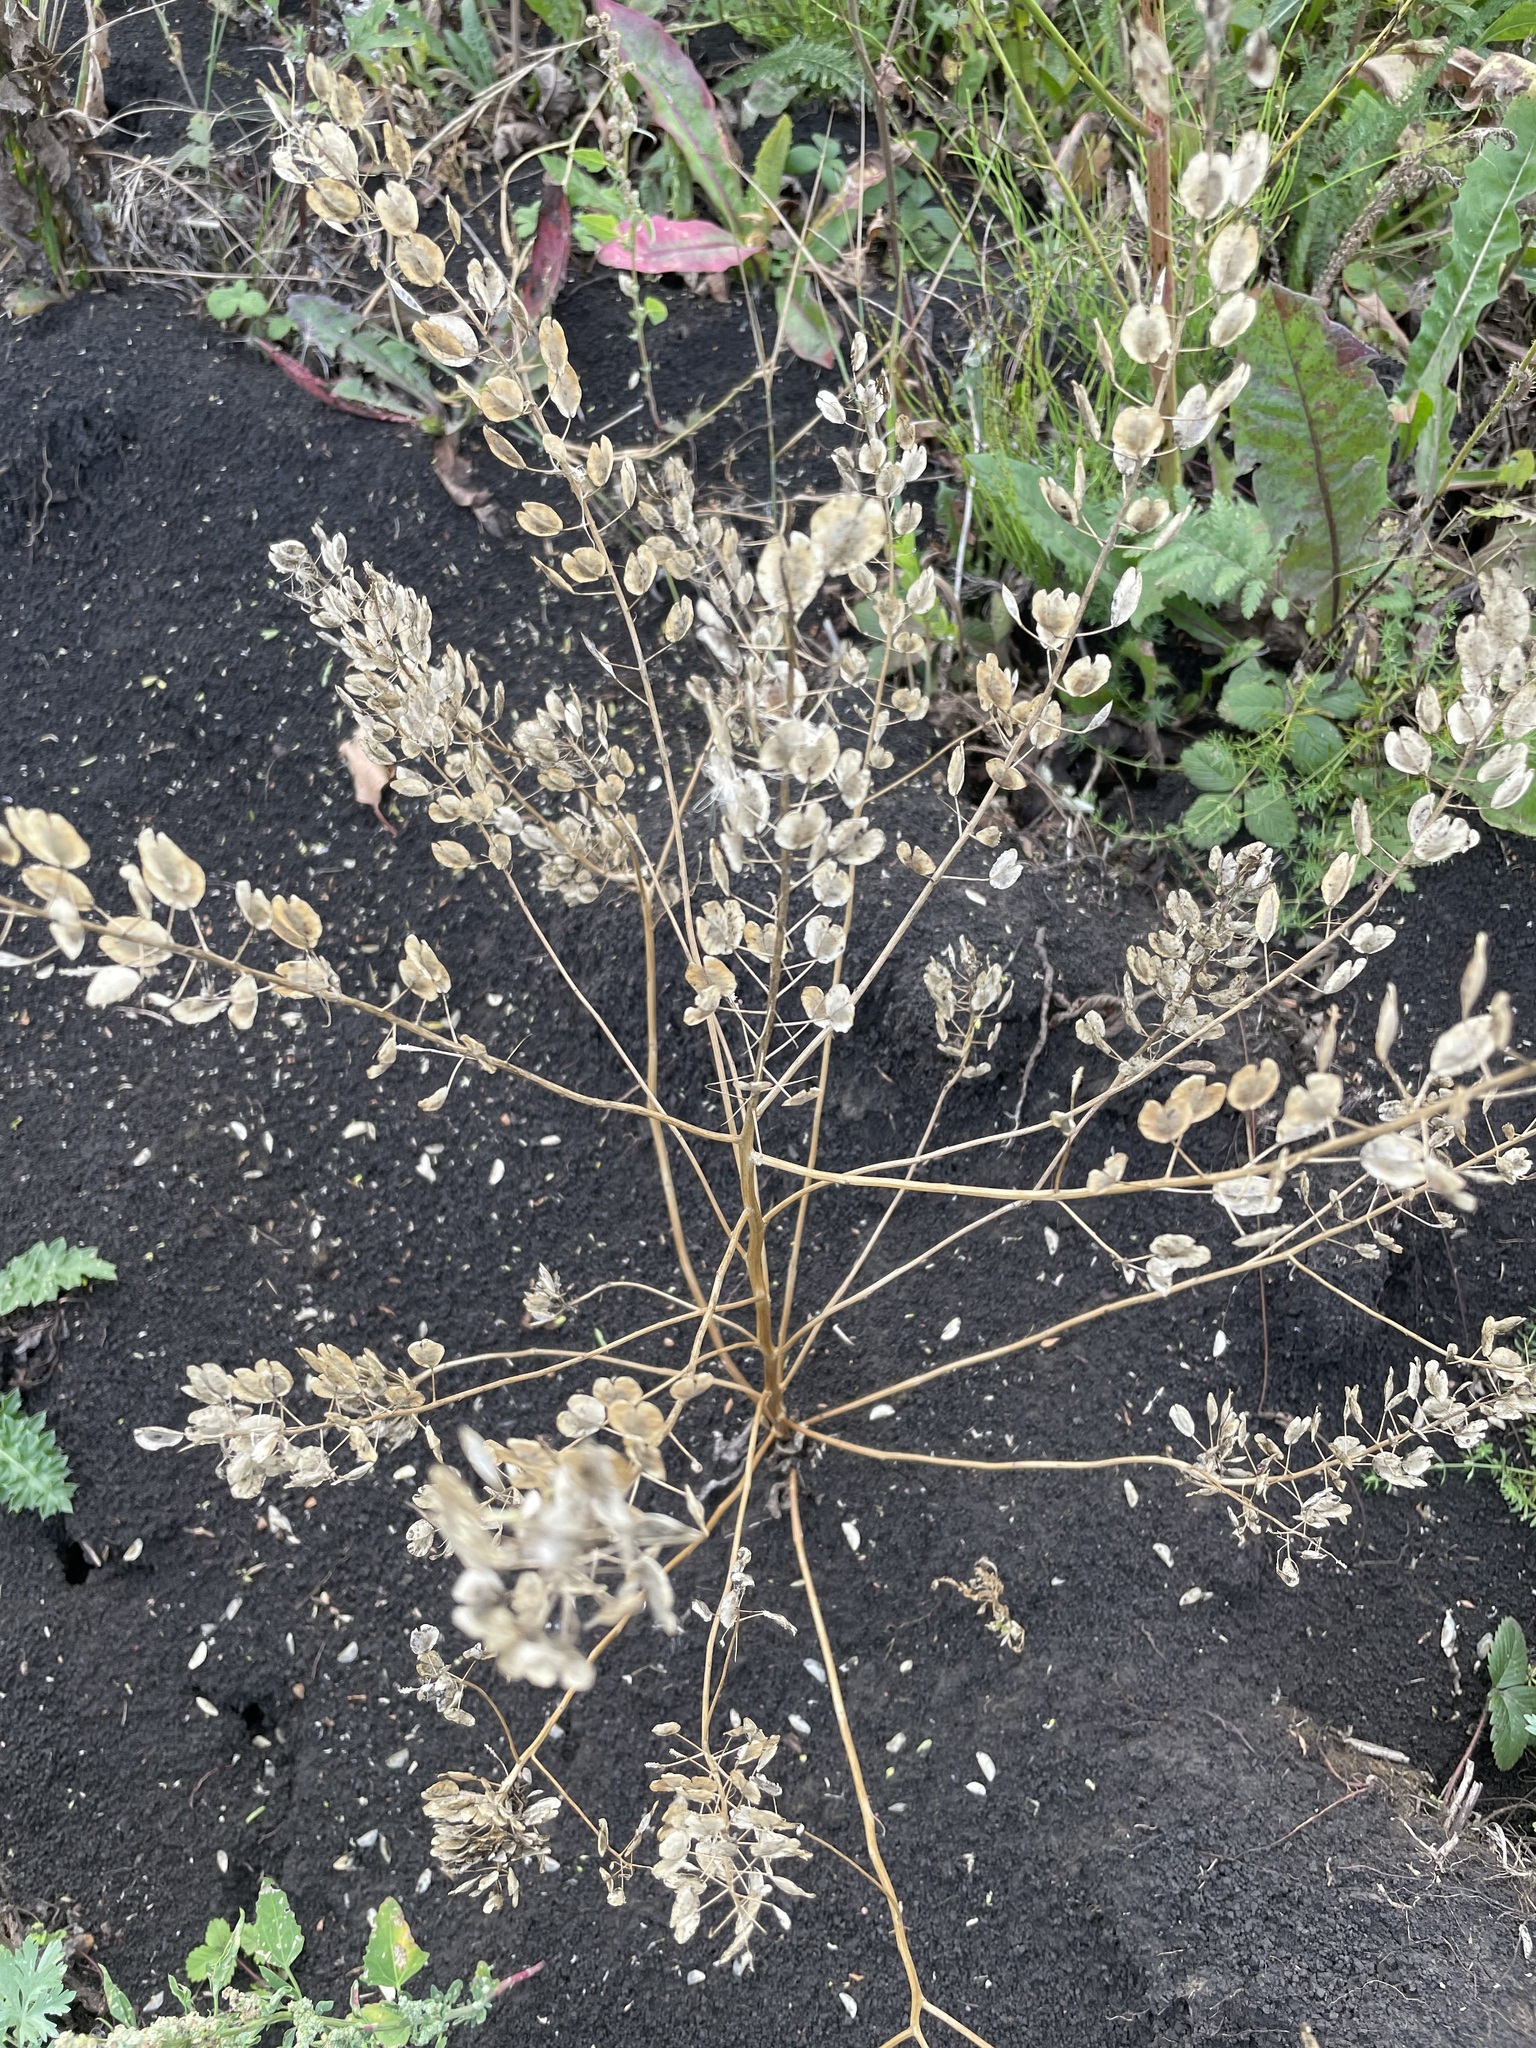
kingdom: Plantae
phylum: Tracheophyta
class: Magnoliopsida
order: Brassicales
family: Brassicaceae
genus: Thlaspi
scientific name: Thlaspi arvense
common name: Field pennycress
